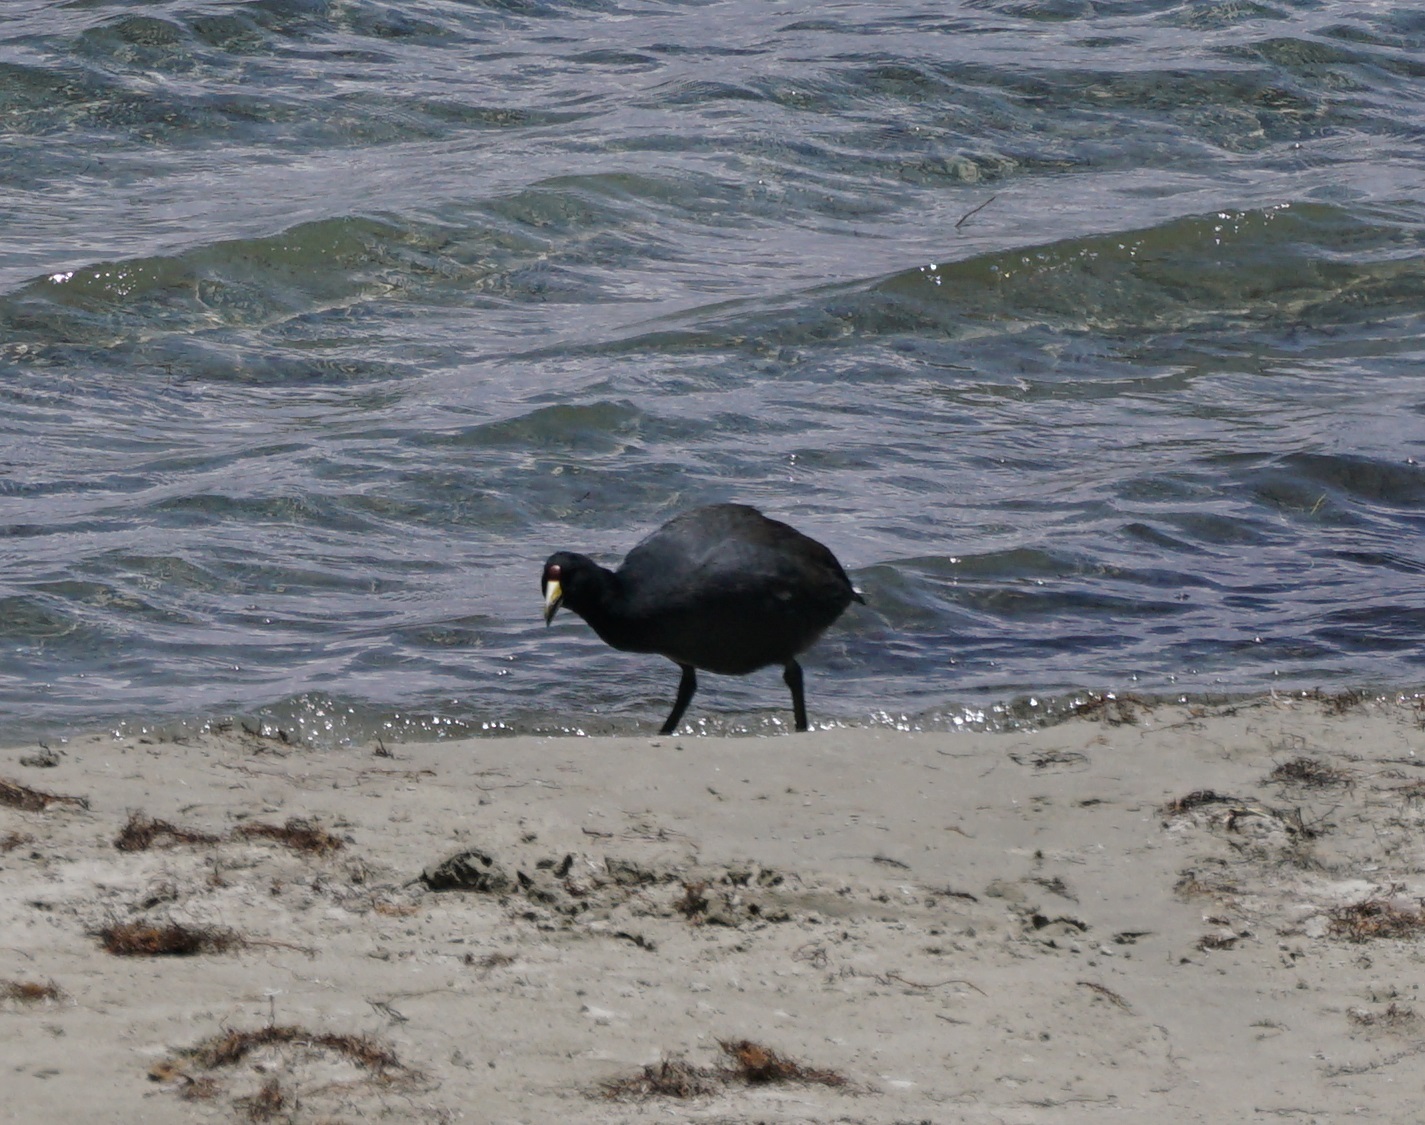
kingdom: Animalia
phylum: Chordata
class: Aves
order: Gruiformes
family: Rallidae
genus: Fulica
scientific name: Fulica ardesiaca
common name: Andean coot
